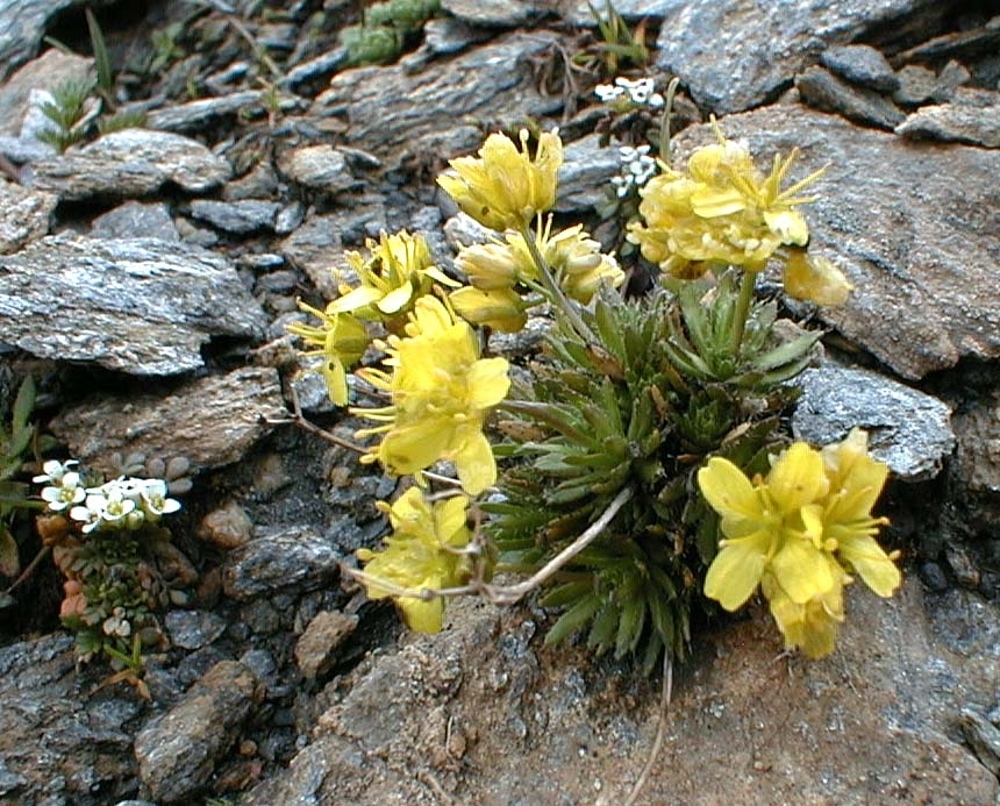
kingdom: Plantae
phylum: Tracheophyta
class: Magnoliopsida
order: Brassicales
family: Brassicaceae
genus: Draba
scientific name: Draba aizoides
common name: Yellow whitlowgrass
